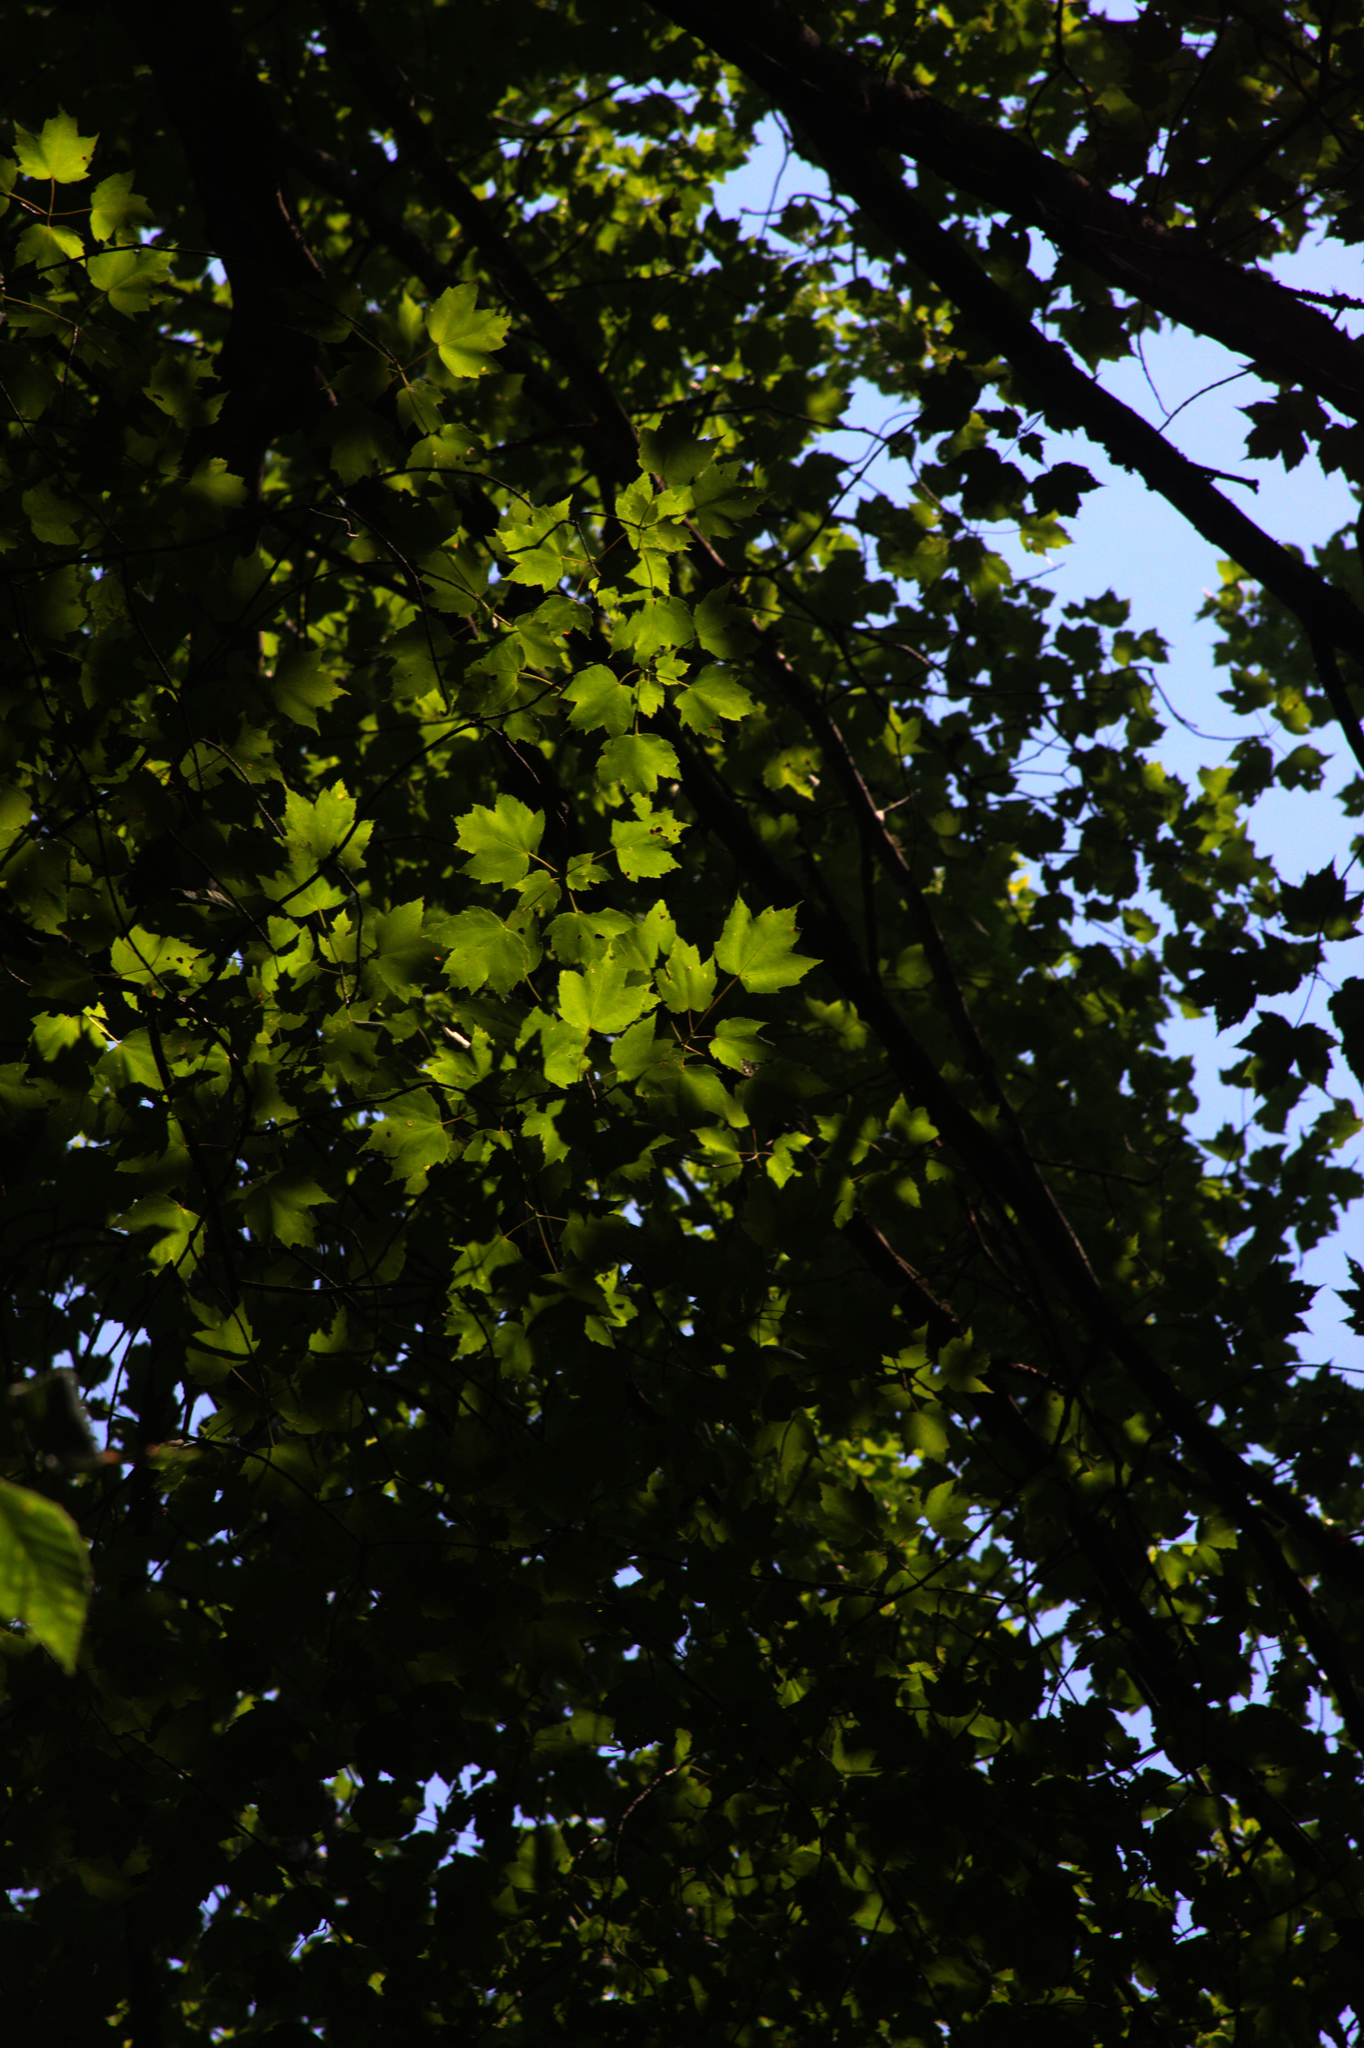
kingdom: Plantae
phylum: Tracheophyta
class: Magnoliopsida
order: Sapindales
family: Sapindaceae
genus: Acer
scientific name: Acer rubrum
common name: Red maple
